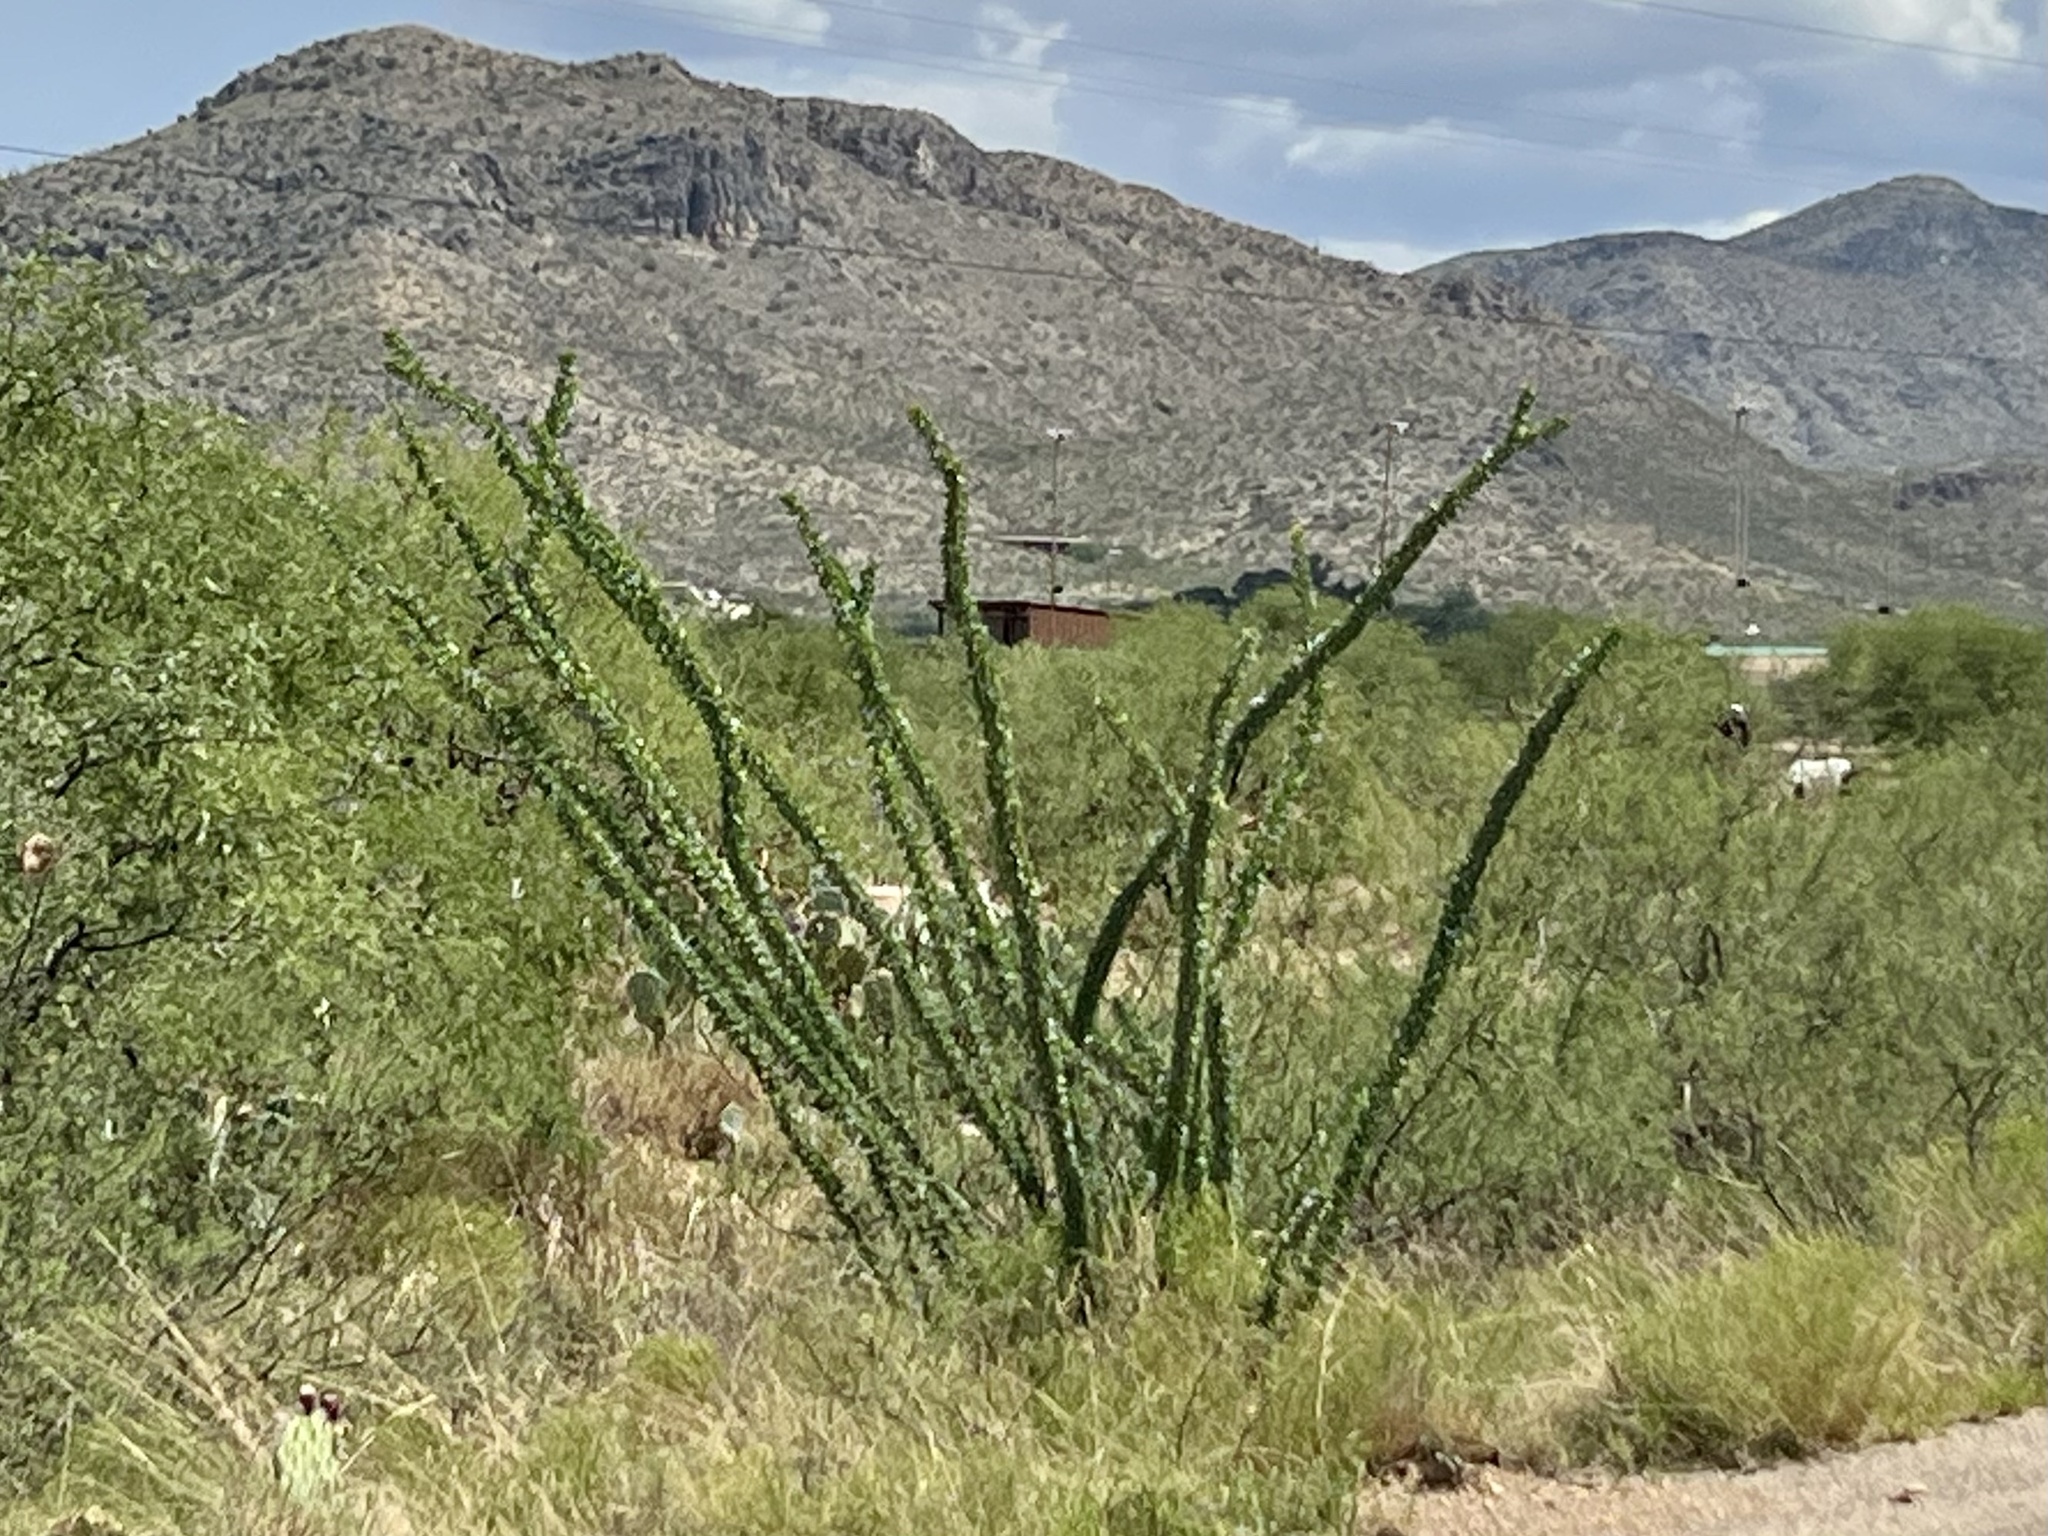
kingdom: Plantae
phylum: Tracheophyta
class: Magnoliopsida
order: Ericales
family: Fouquieriaceae
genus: Fouquieria
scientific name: Fouquieria splendens
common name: Vine-cactus
